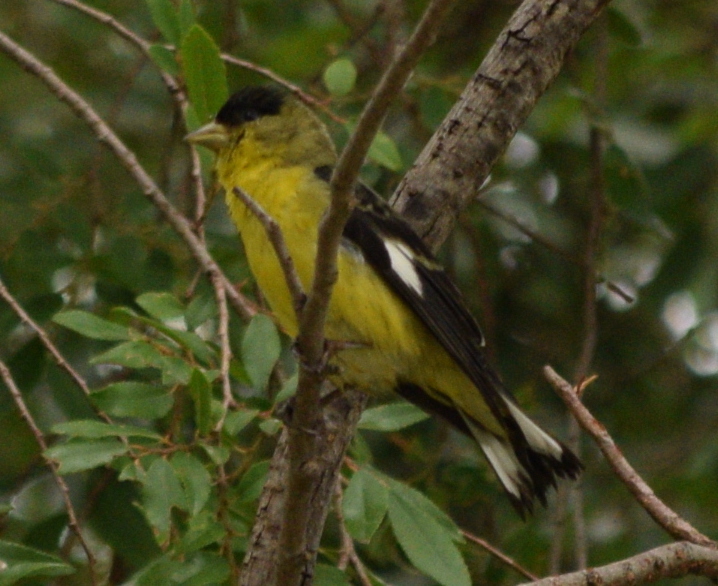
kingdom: Animalia
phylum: Chordata
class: Aves
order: Passeriformes
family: Fringillidae
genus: Spinus
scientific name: Spinus psaltria
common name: Lesser goldfinch
